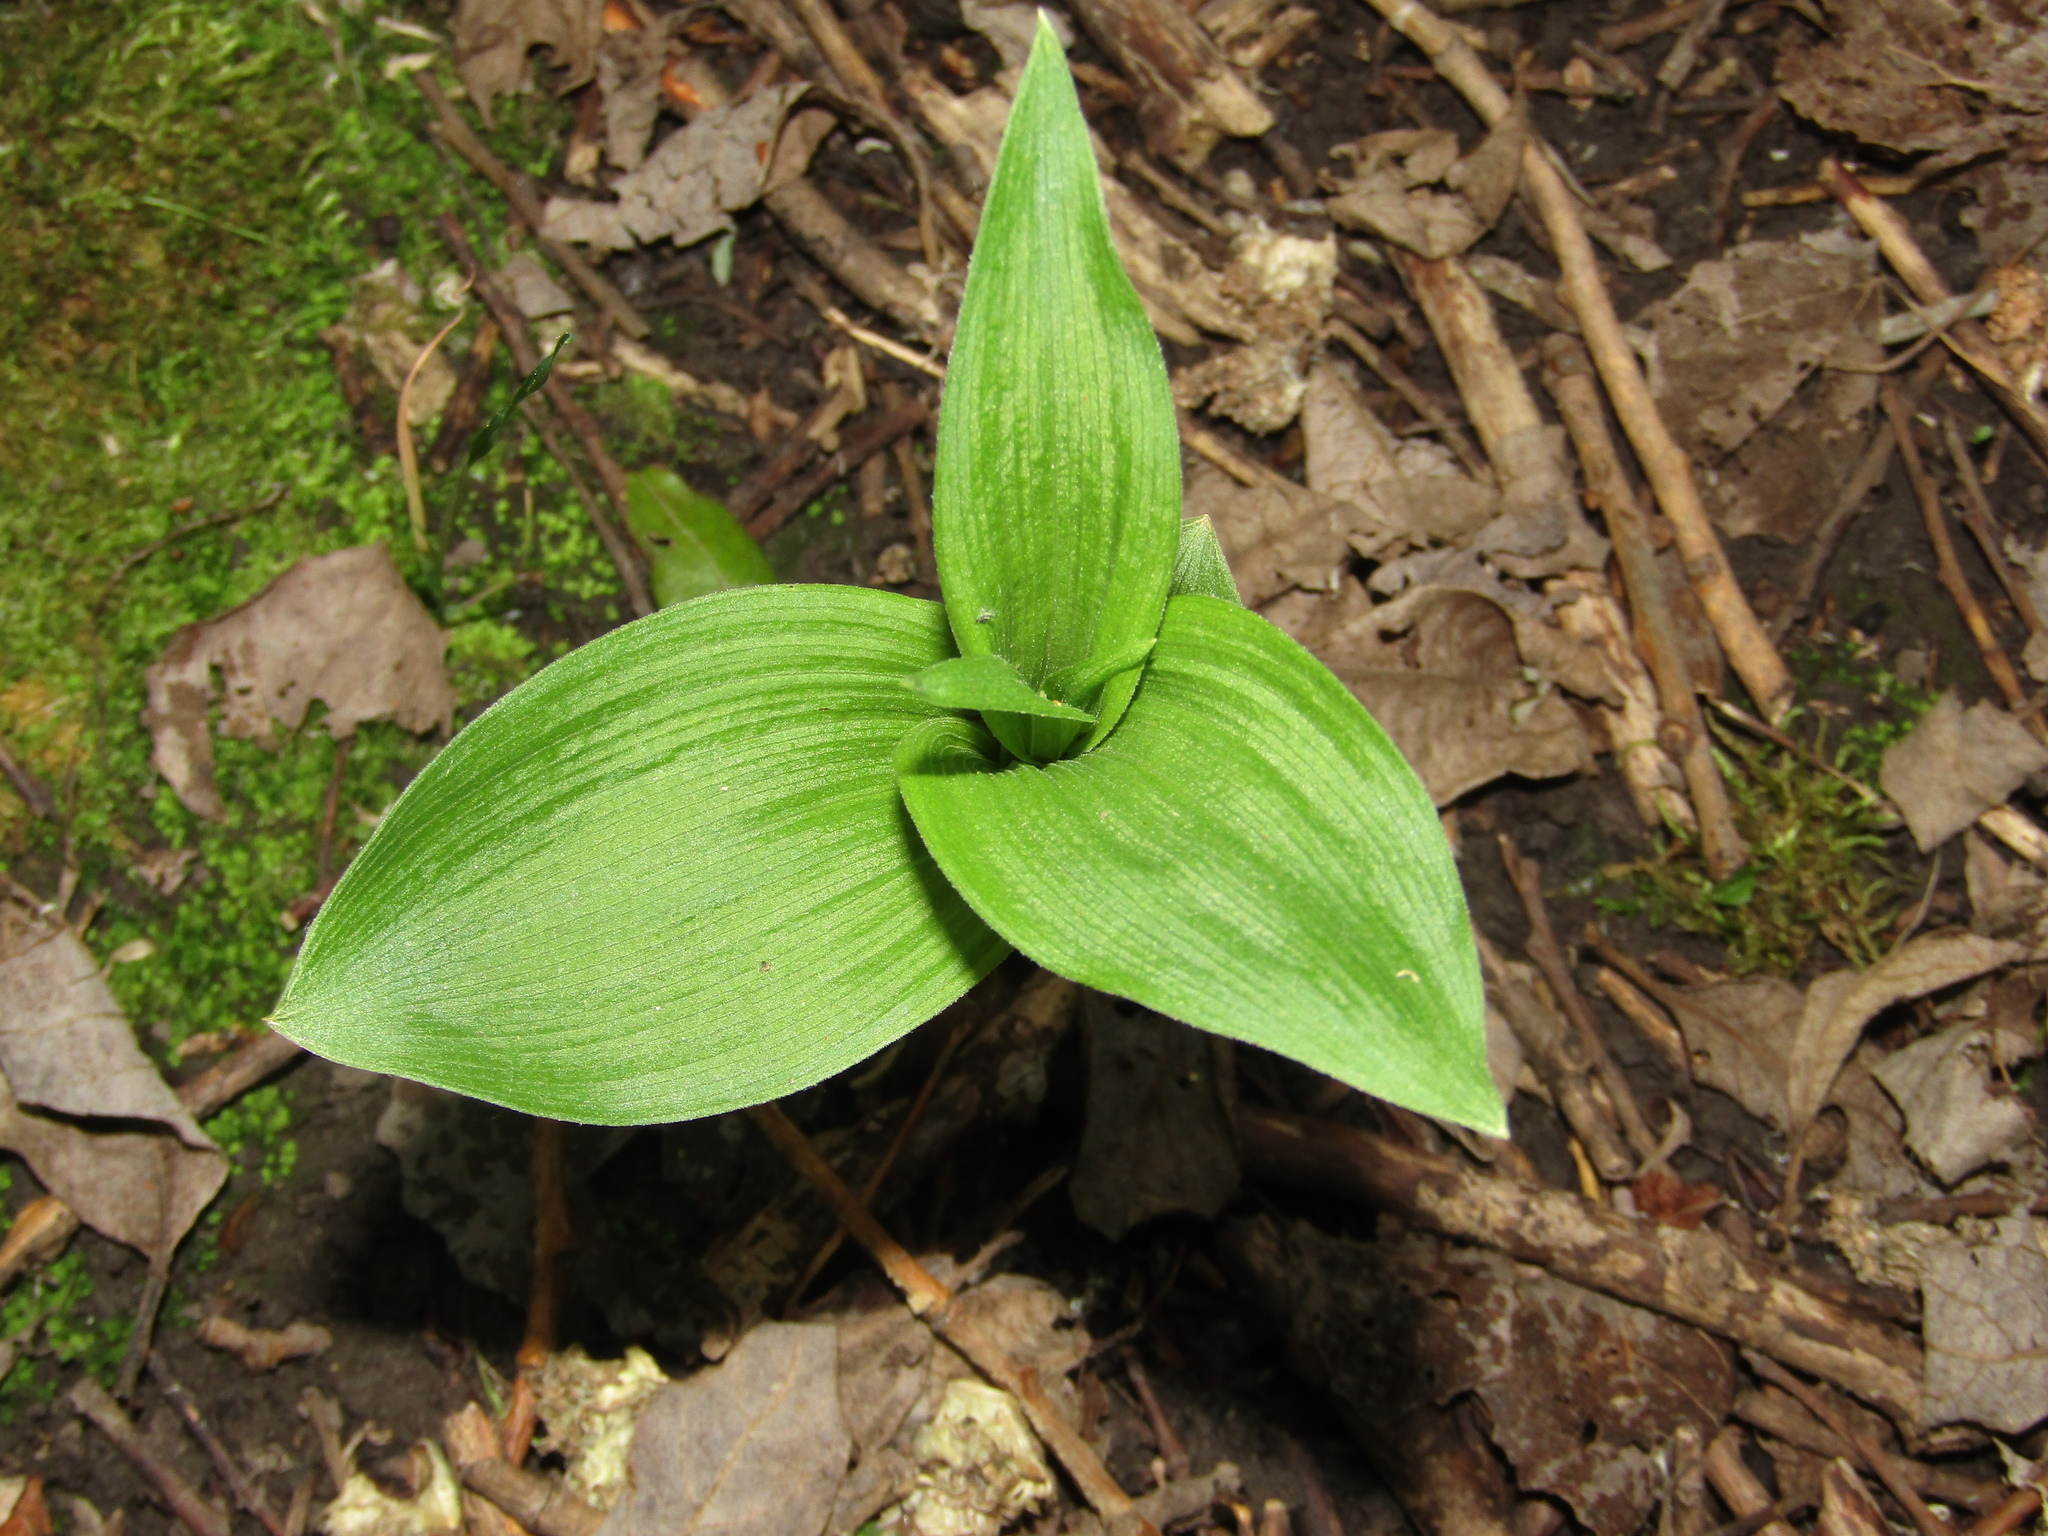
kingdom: Plantae
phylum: Tracheophyta
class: Liliopsida
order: Asparagales
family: Orchidaceae
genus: Epipactis
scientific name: Epipactis helleborine
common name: Broad-leaved helleborine
